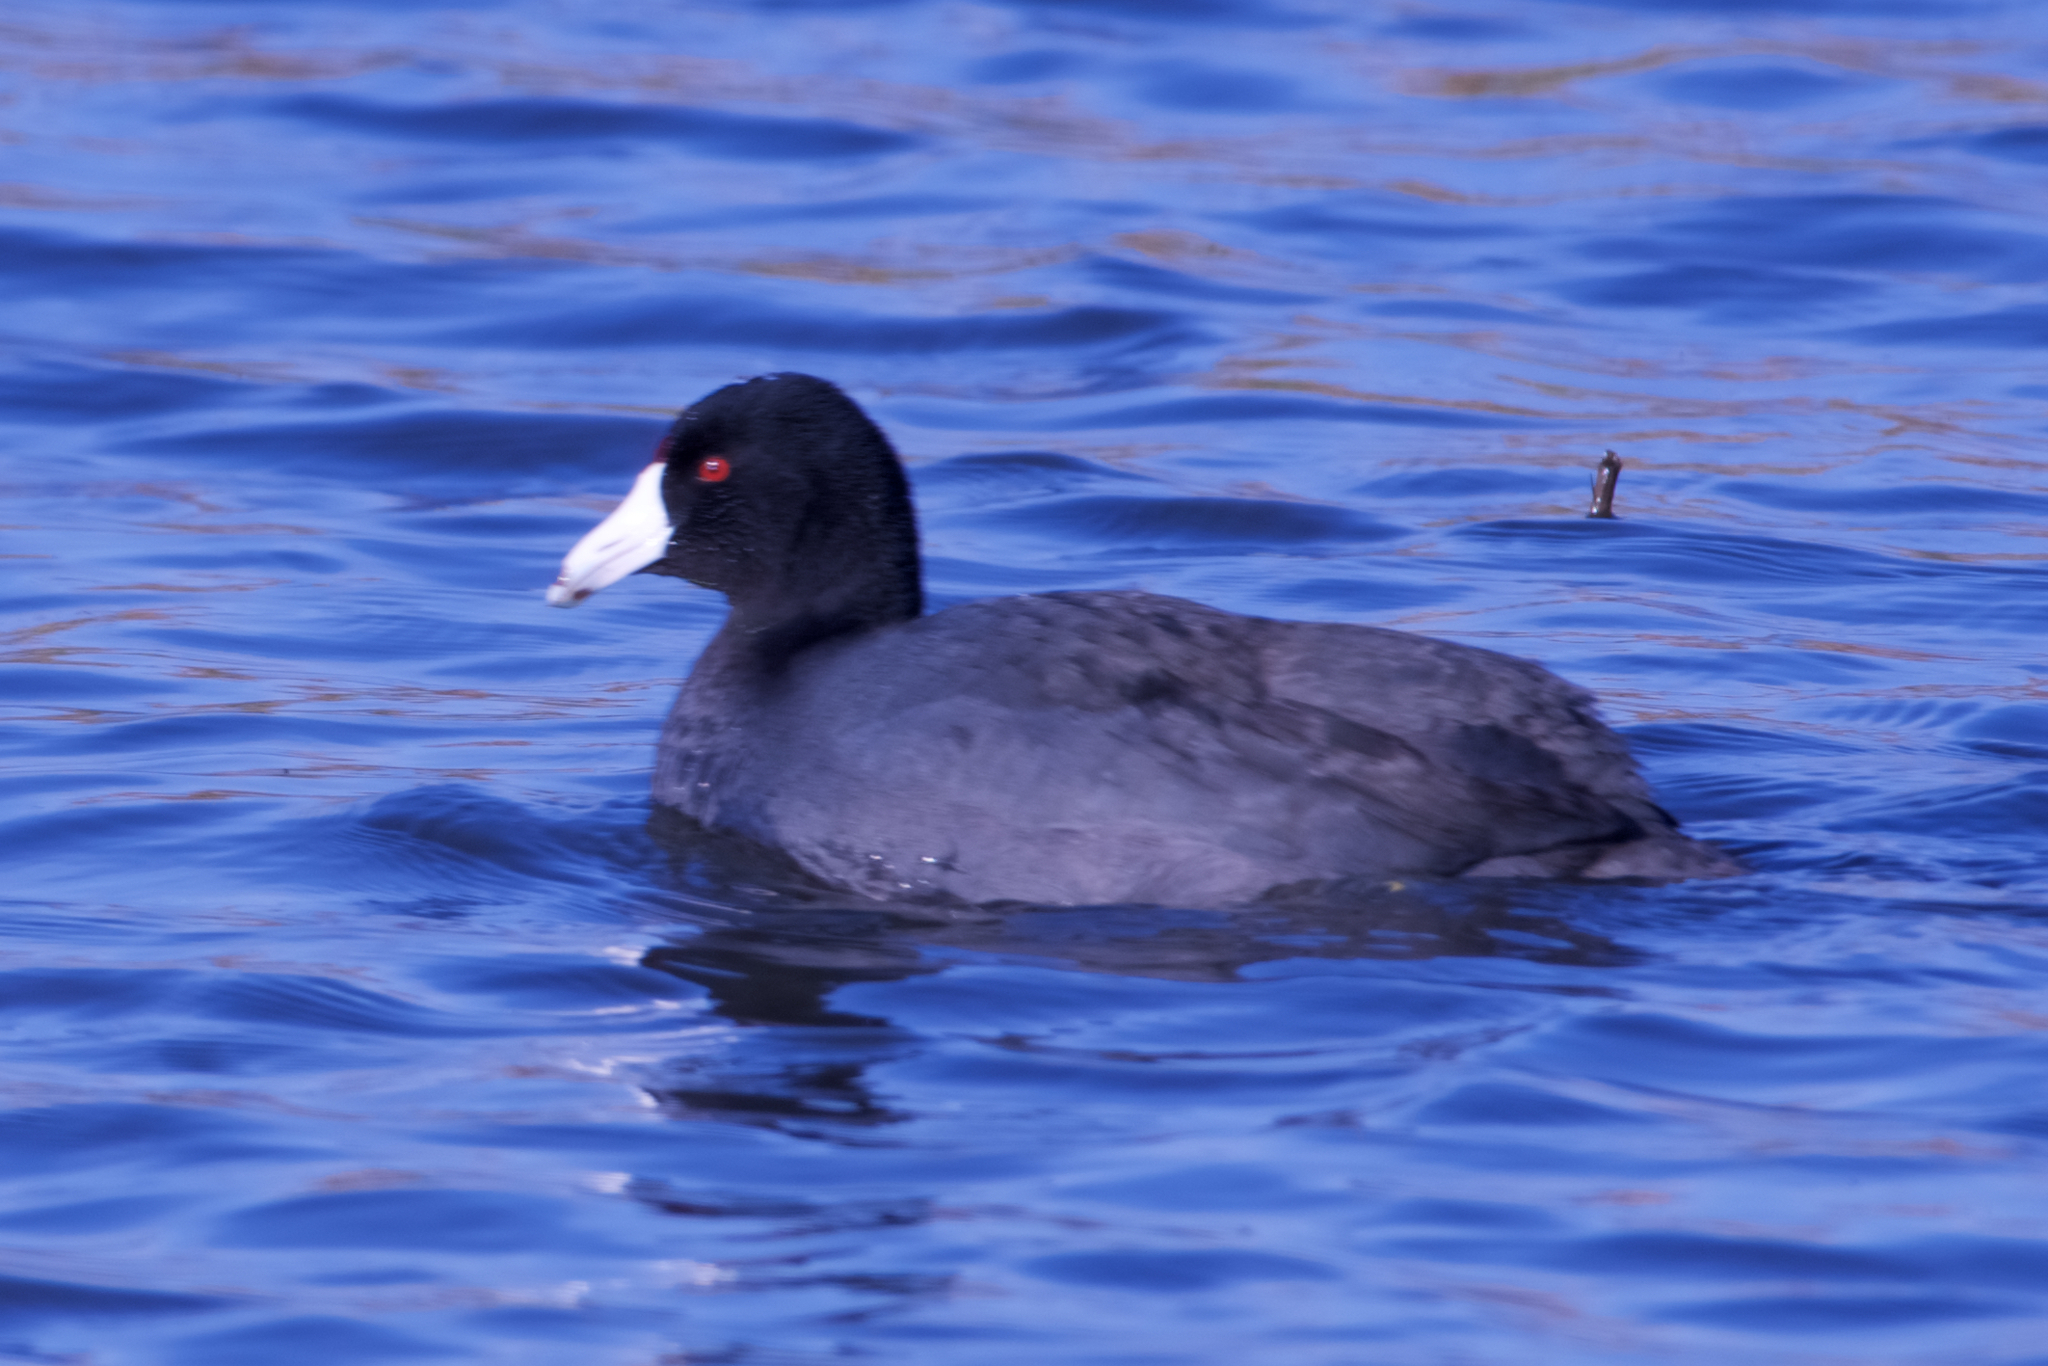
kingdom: Animalia
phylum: Chordata
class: Aves
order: Gruiformes
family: Rallidae
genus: Fulica
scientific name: Fulica americana
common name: American coot
